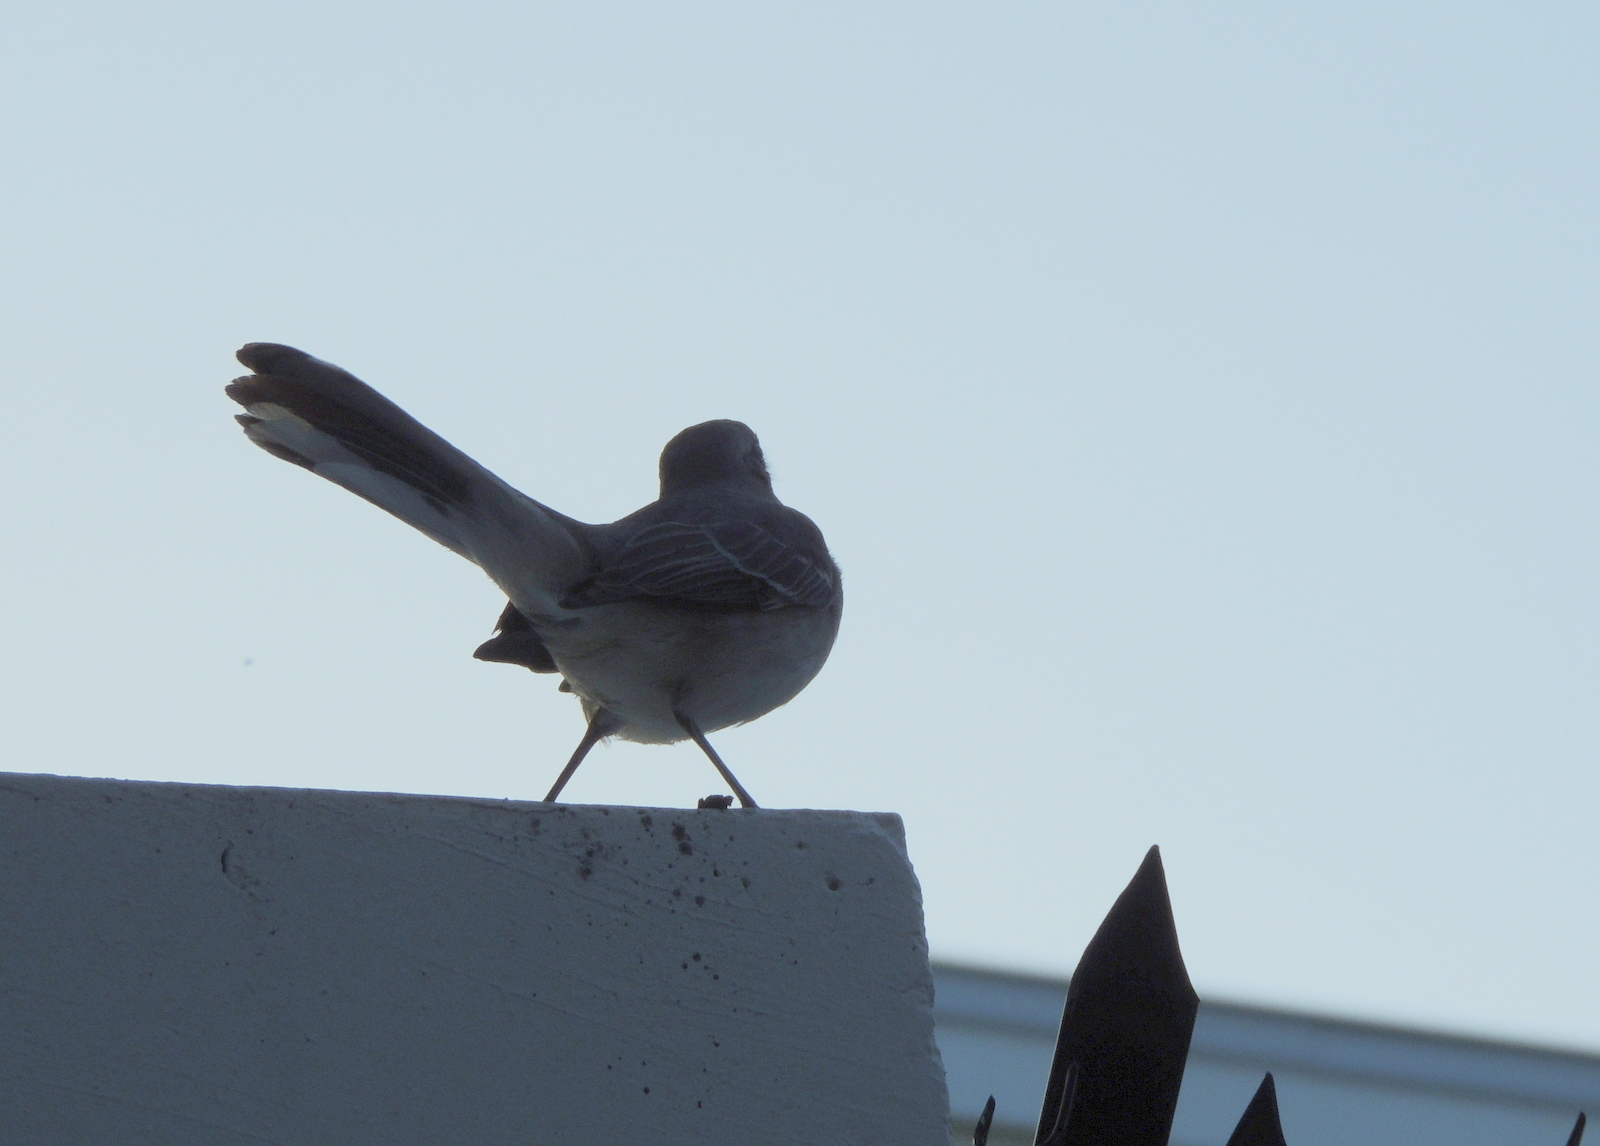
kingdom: Animalia
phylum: Chordata
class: Aves
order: Passeriformes
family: Mimidae
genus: Mimus
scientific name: Mimus polyglottos
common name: Northern mockingbird
